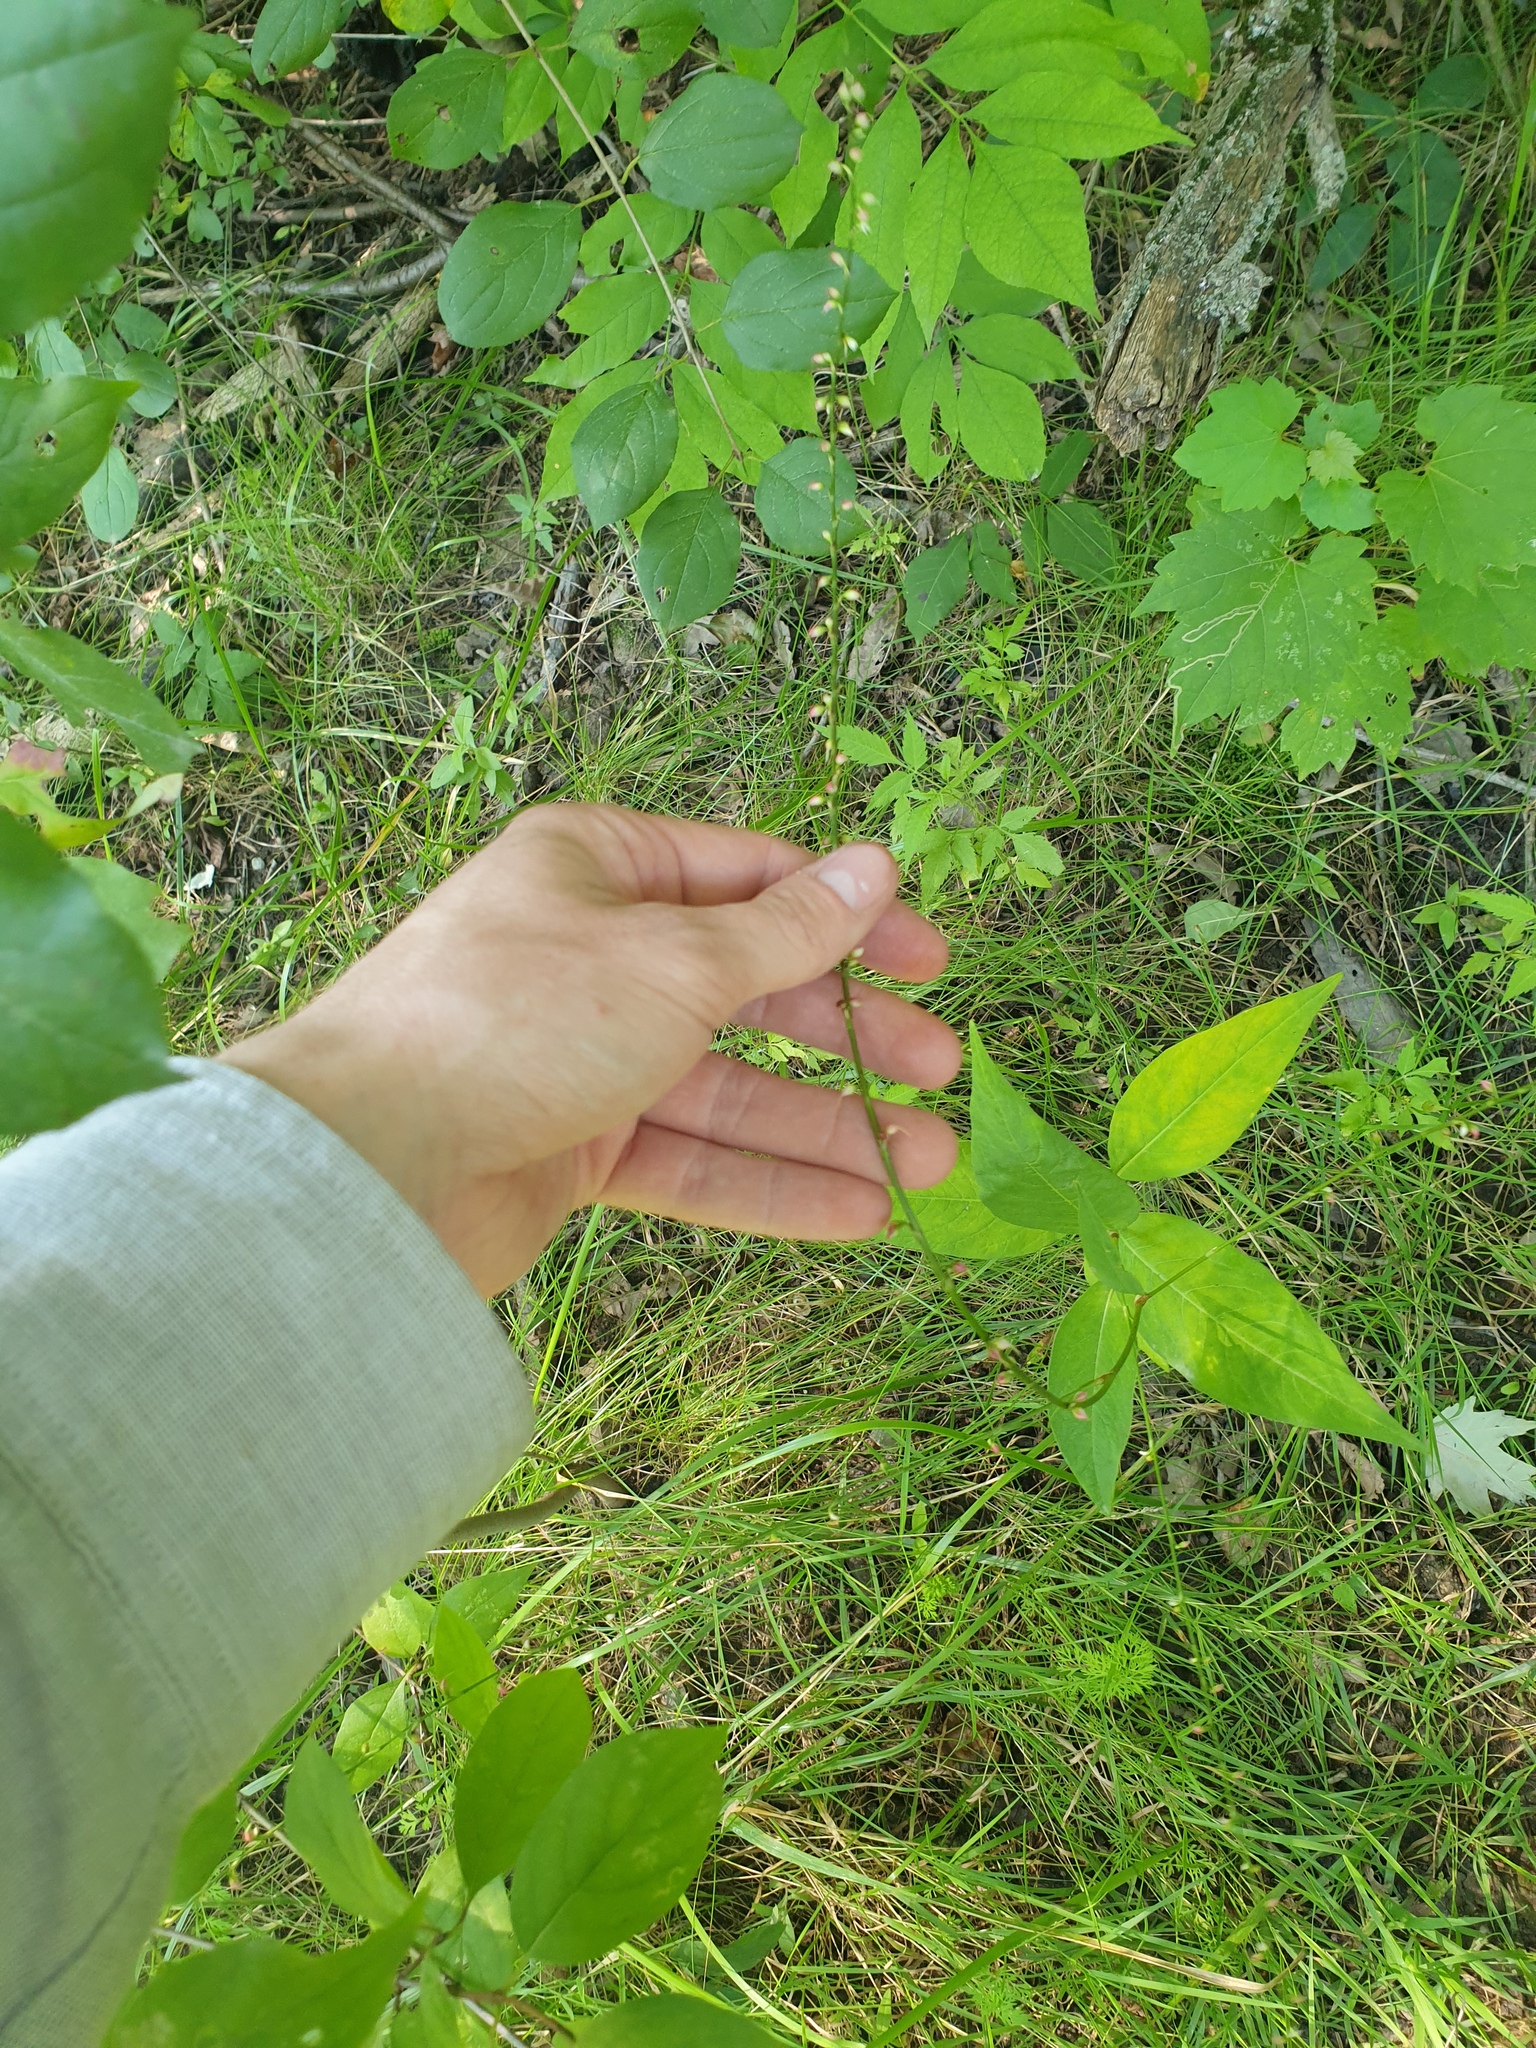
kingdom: Plantae
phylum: Tracheophyta
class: Magnoliopsida
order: Caryophyllales
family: Polygonaceae
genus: Persicaria
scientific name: Persicaria virginiana
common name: Jumpseed
